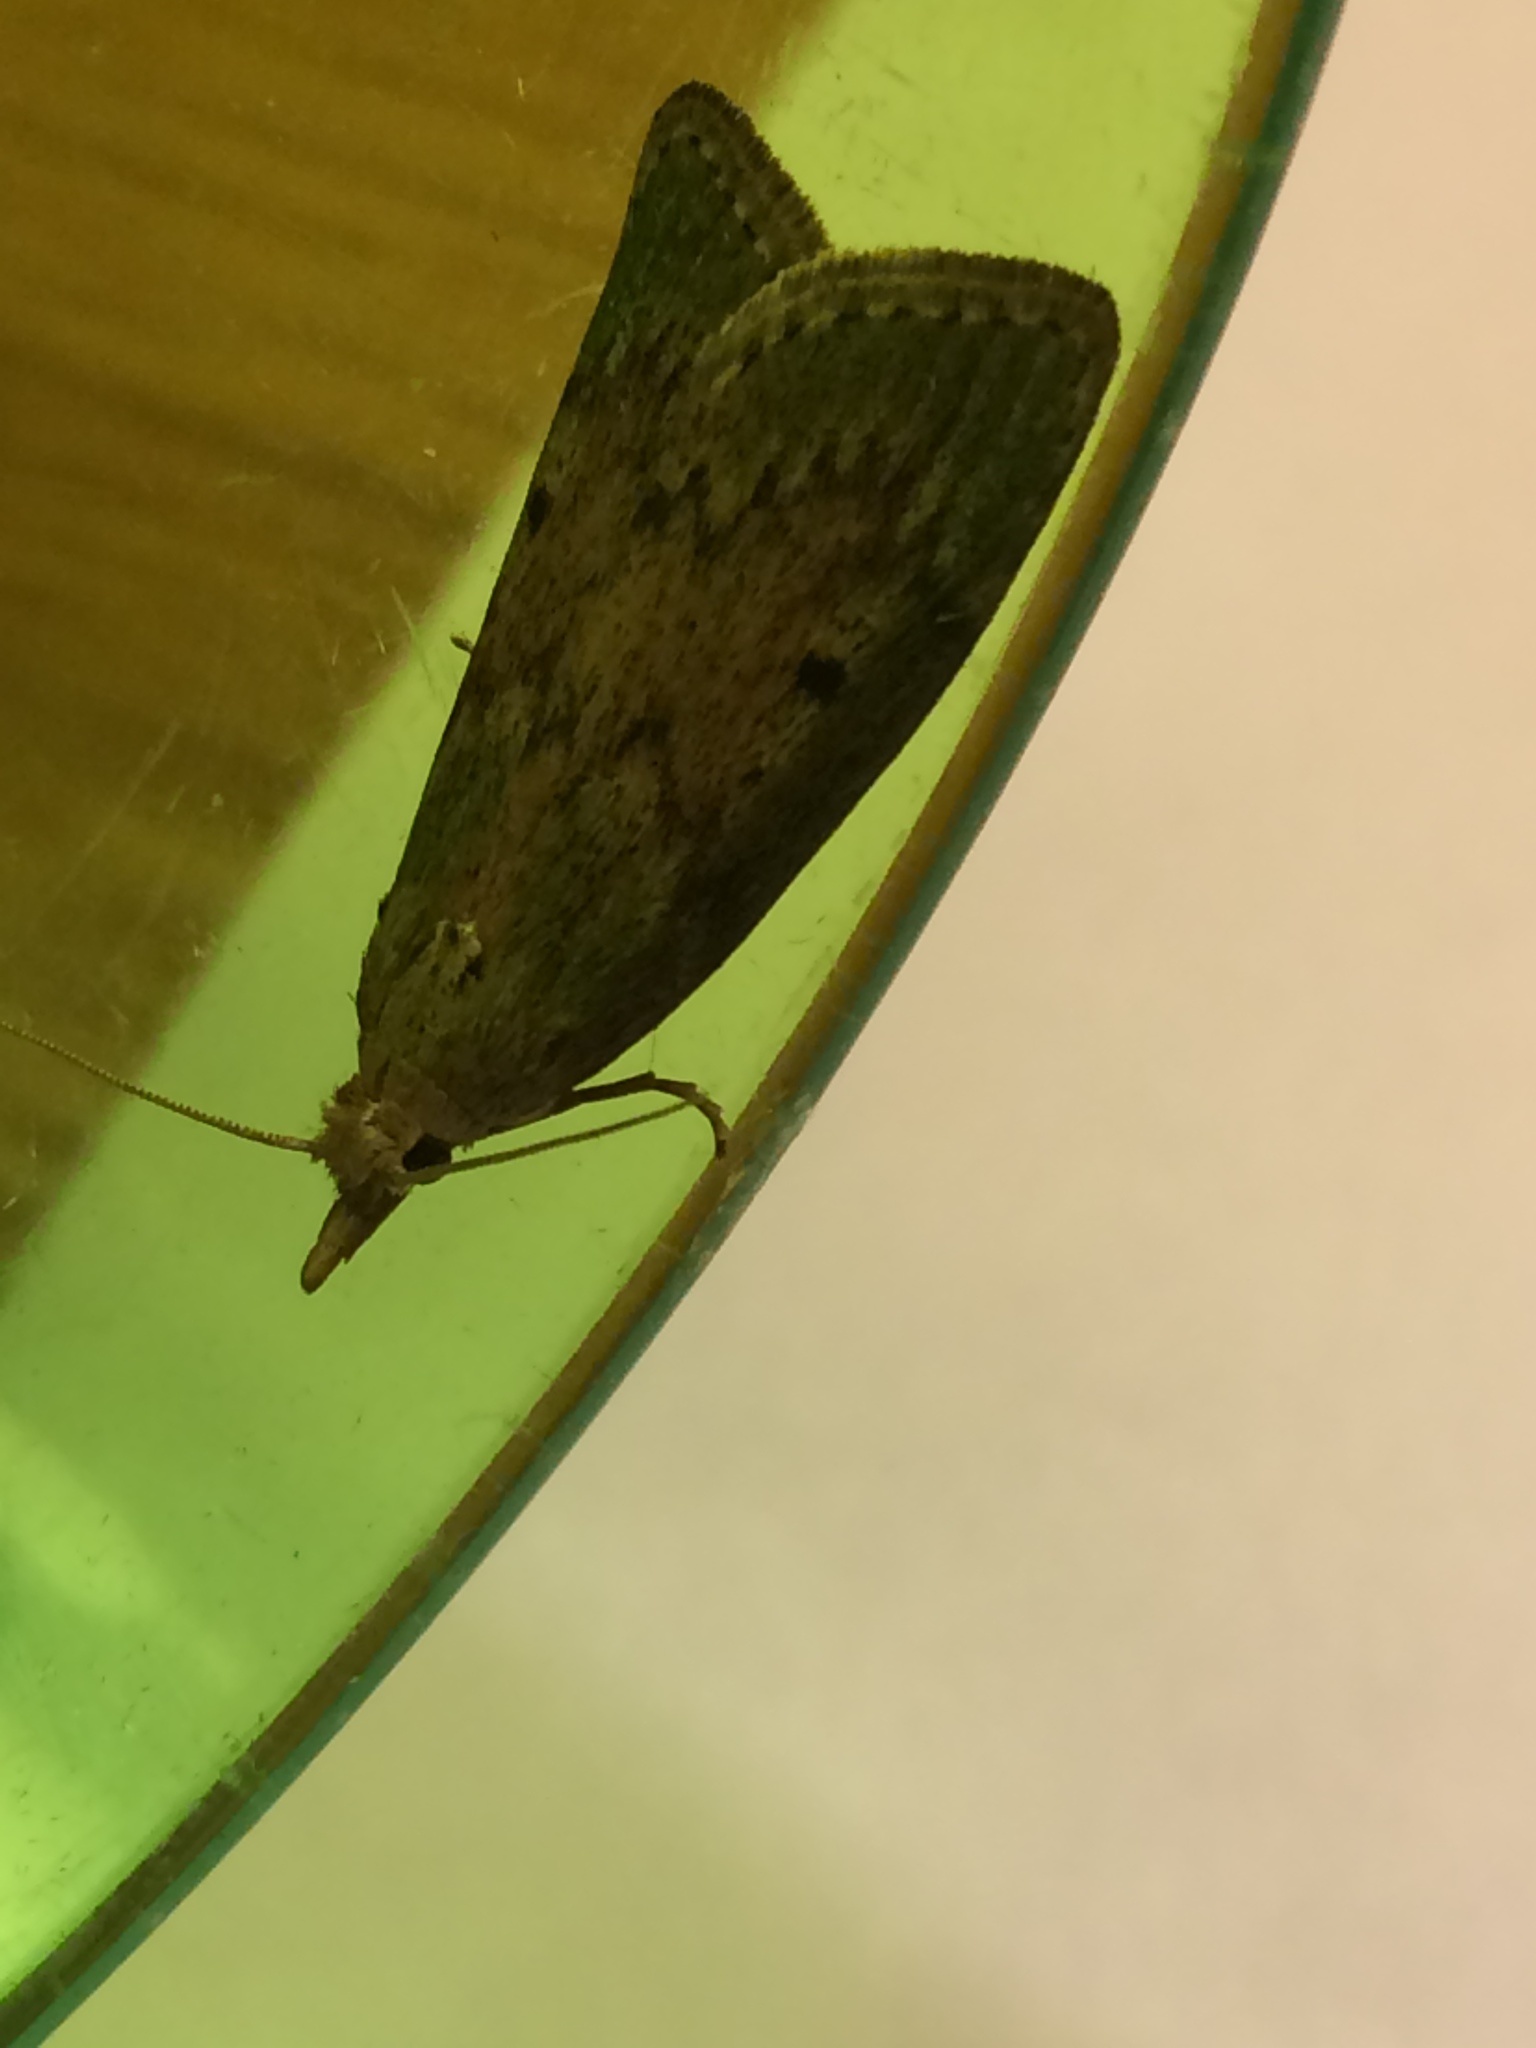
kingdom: Animalia
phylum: Arthropoda
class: Insecta
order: Lepidoptera
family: Pyralidae
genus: Aphomia
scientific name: Aphomia sociella
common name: Bee moth
